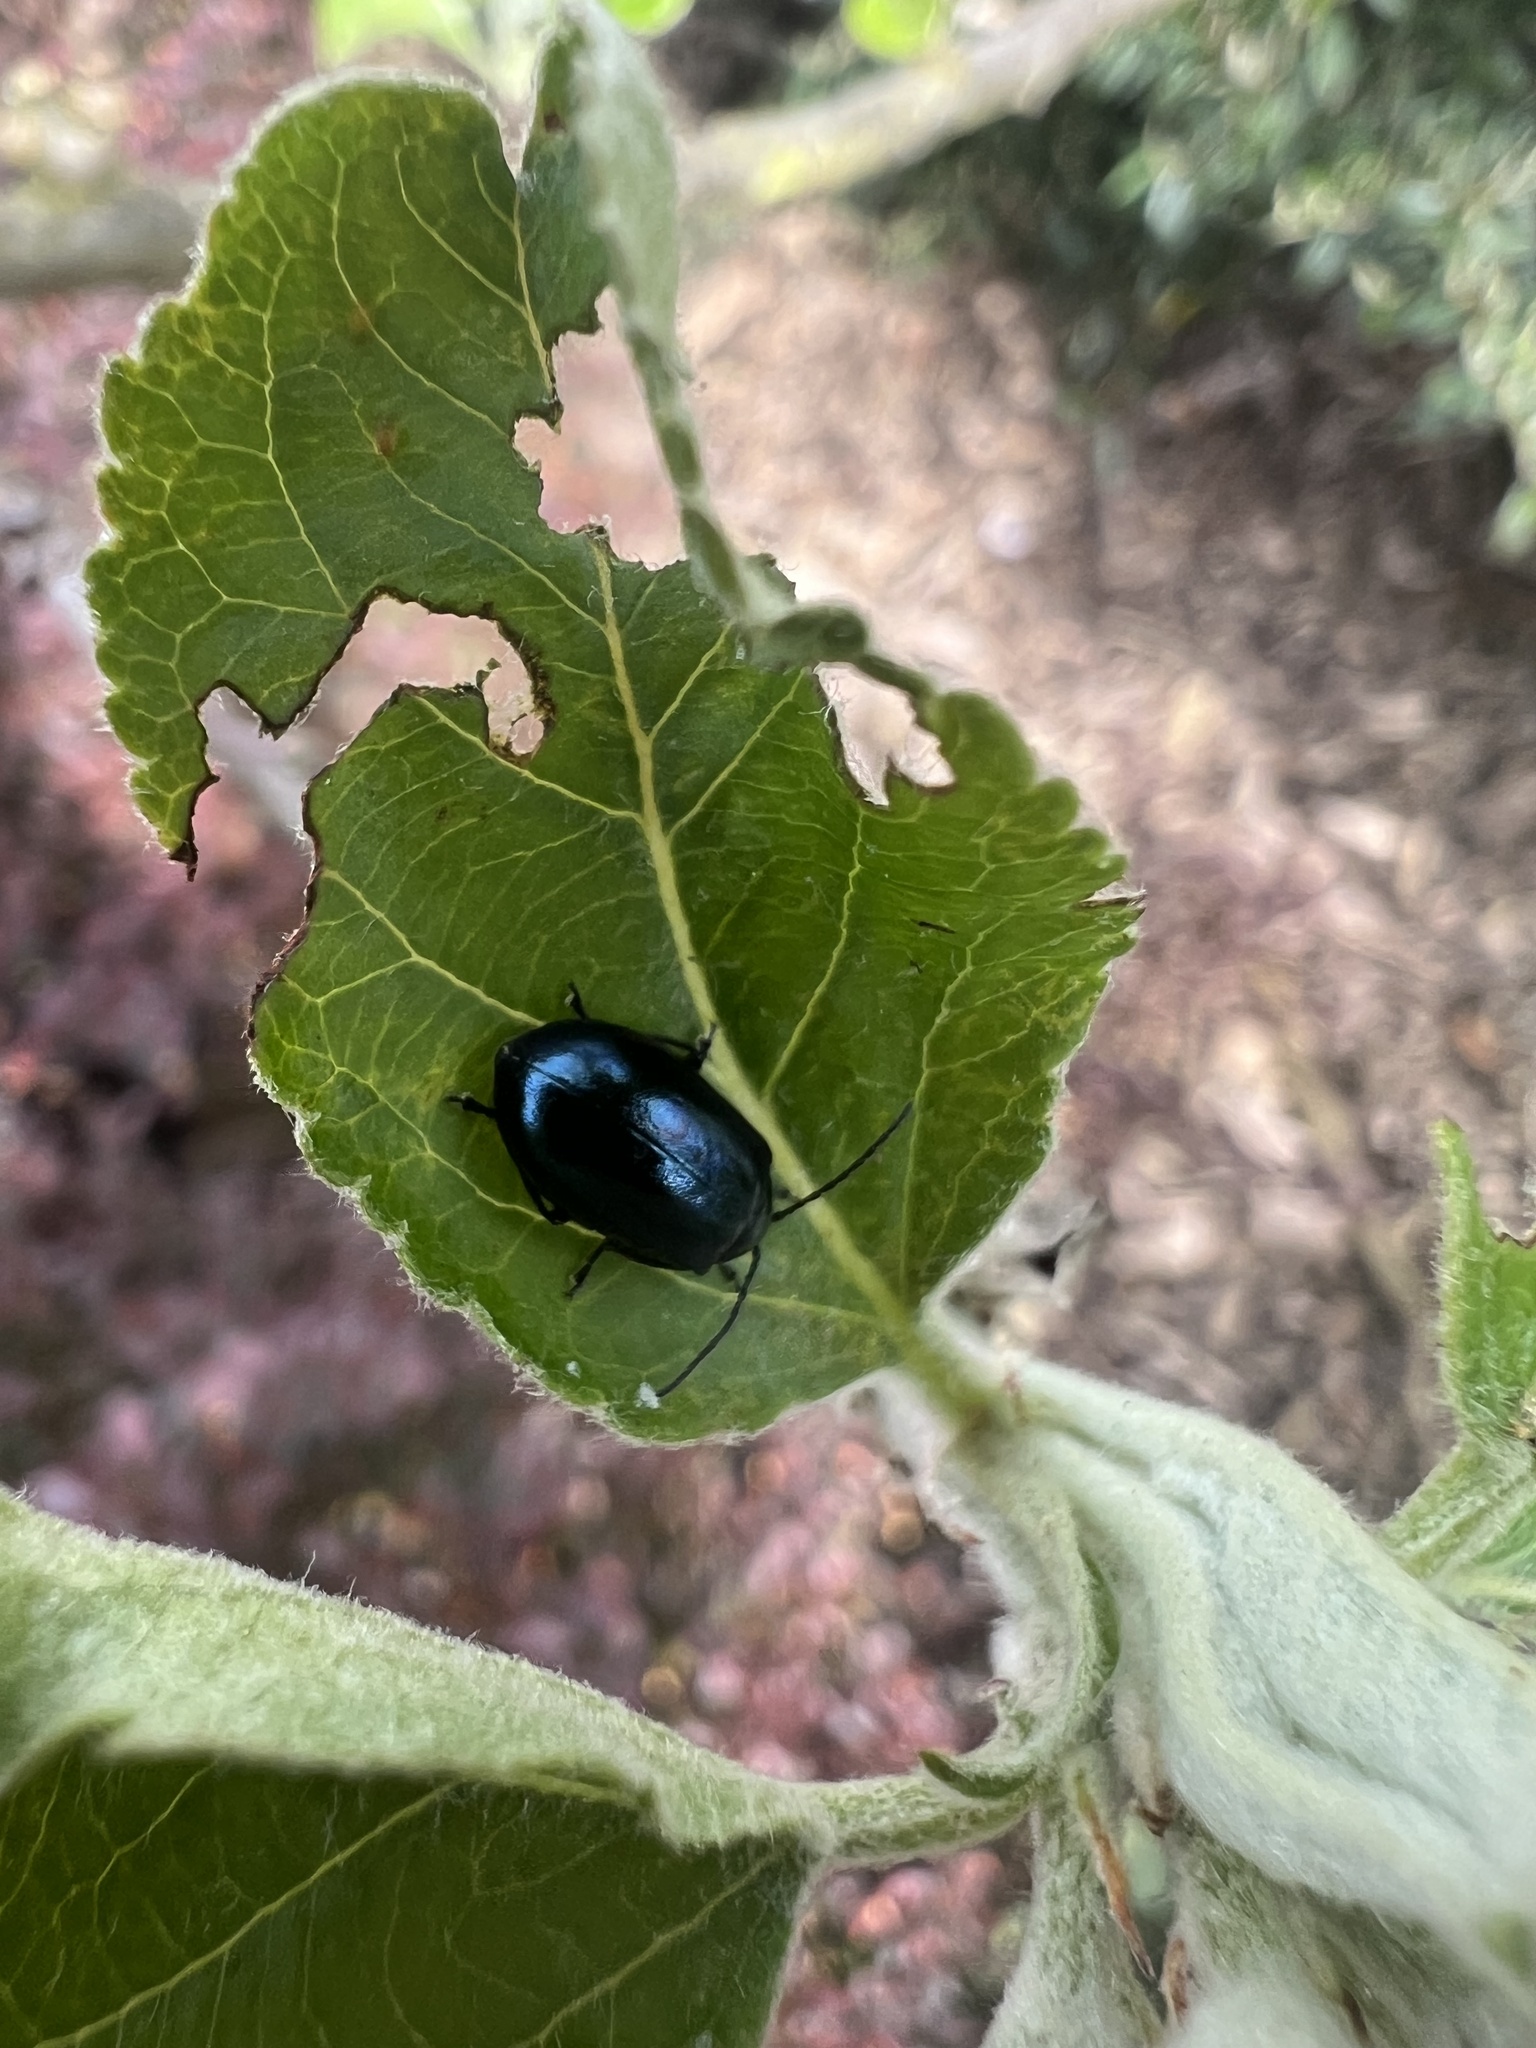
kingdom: Animalia
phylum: Arthropoda
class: Insecta
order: Coleoptera
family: Chrysomelidae
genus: Agelastica
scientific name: Agelastica alni
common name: Alder leaf beetle
